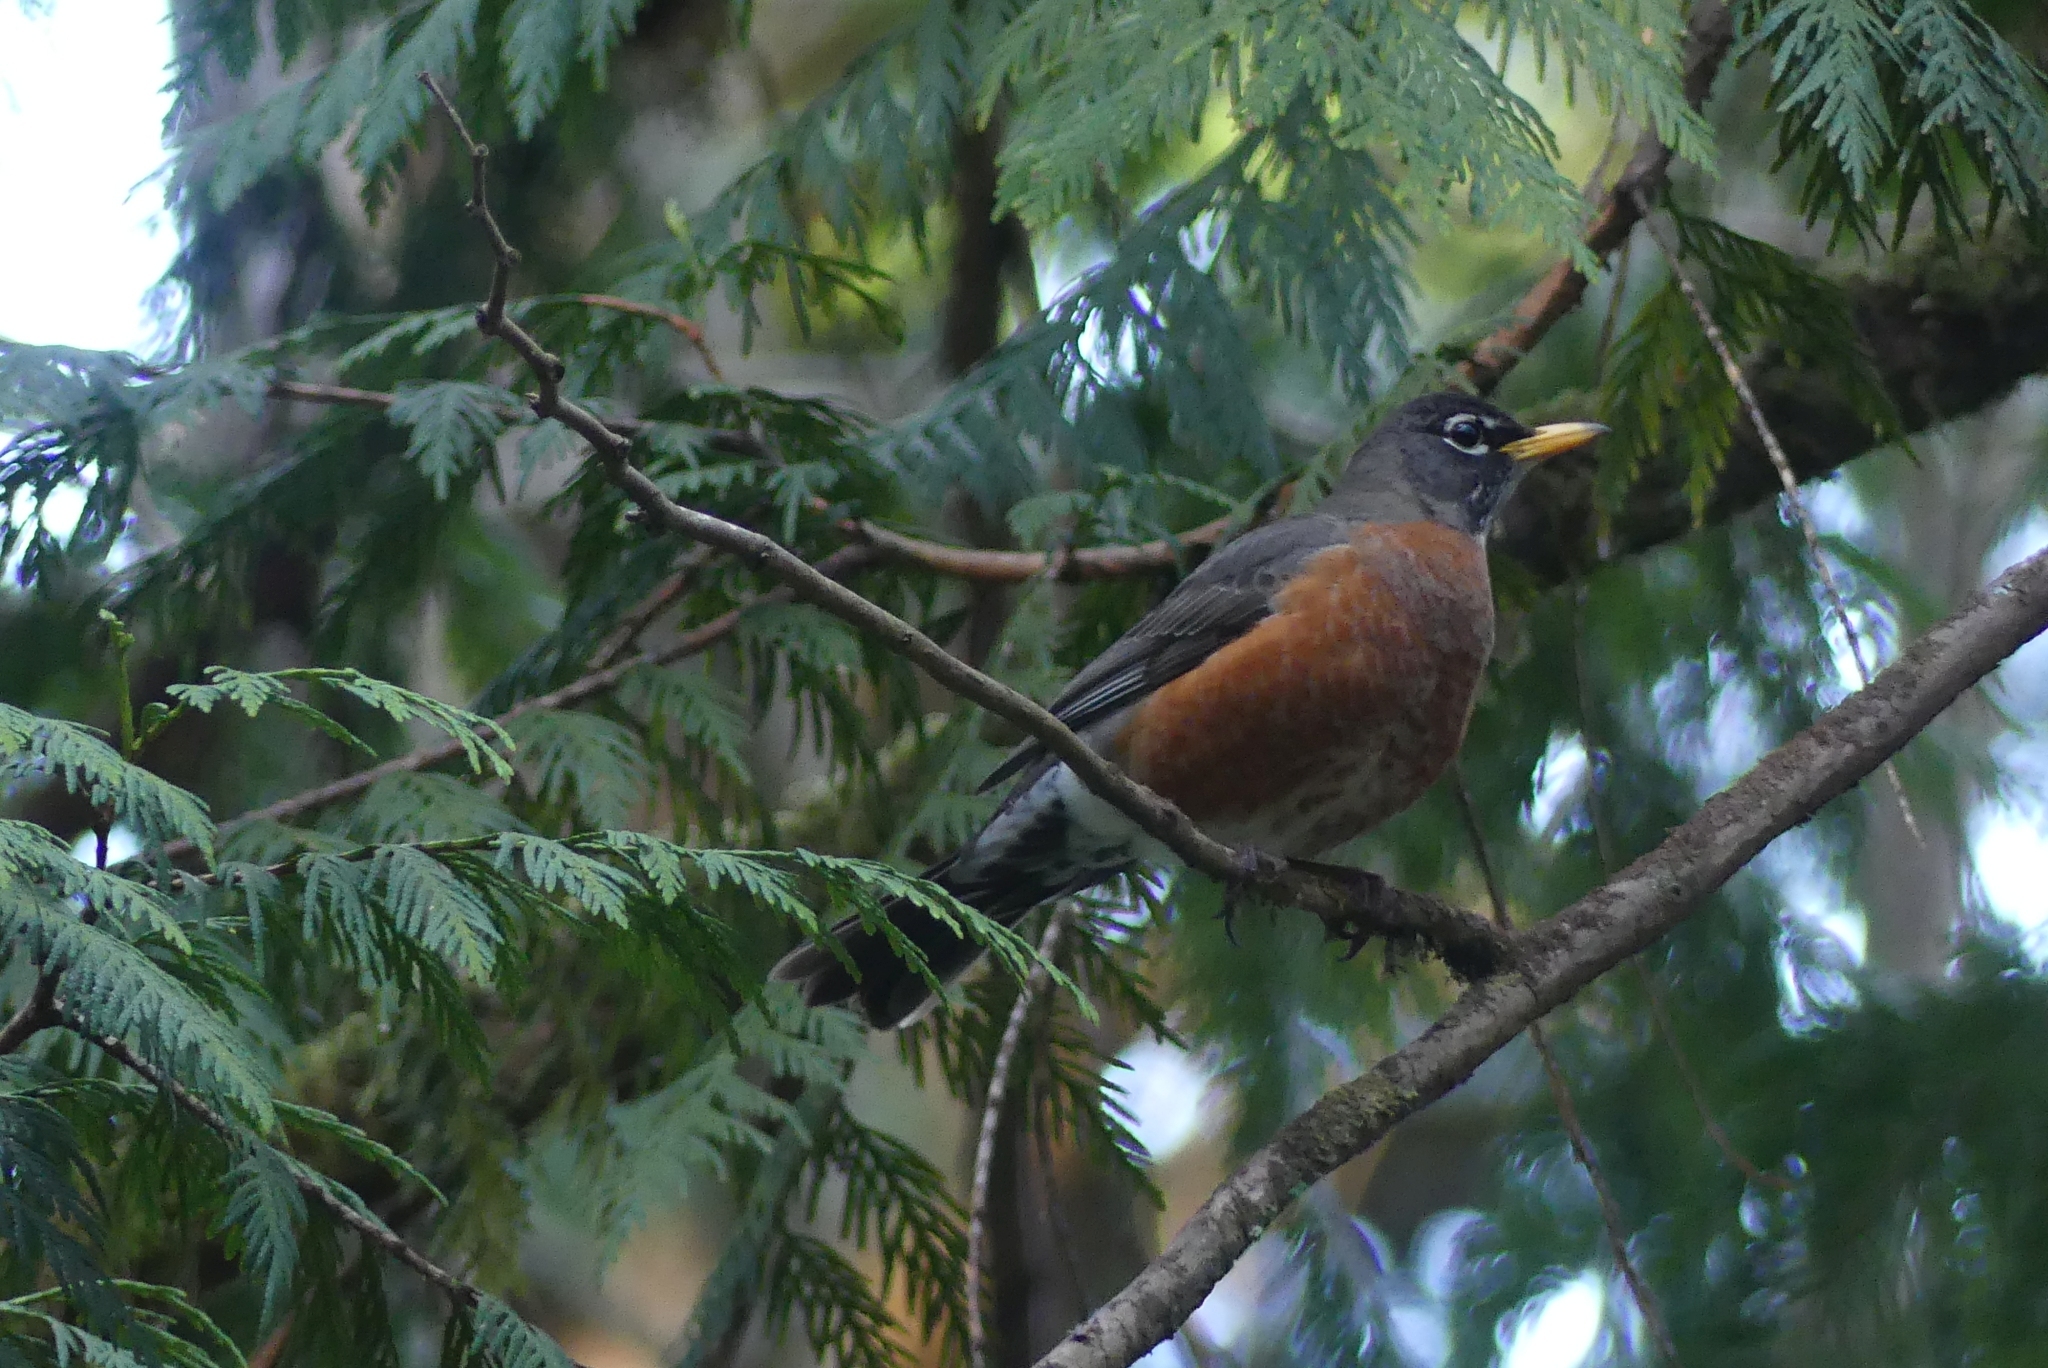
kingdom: Animalia
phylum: Chordata
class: Aves
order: Passeriformes
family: Turdidae
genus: Turdus
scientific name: Turdus migratorius
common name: American robin
